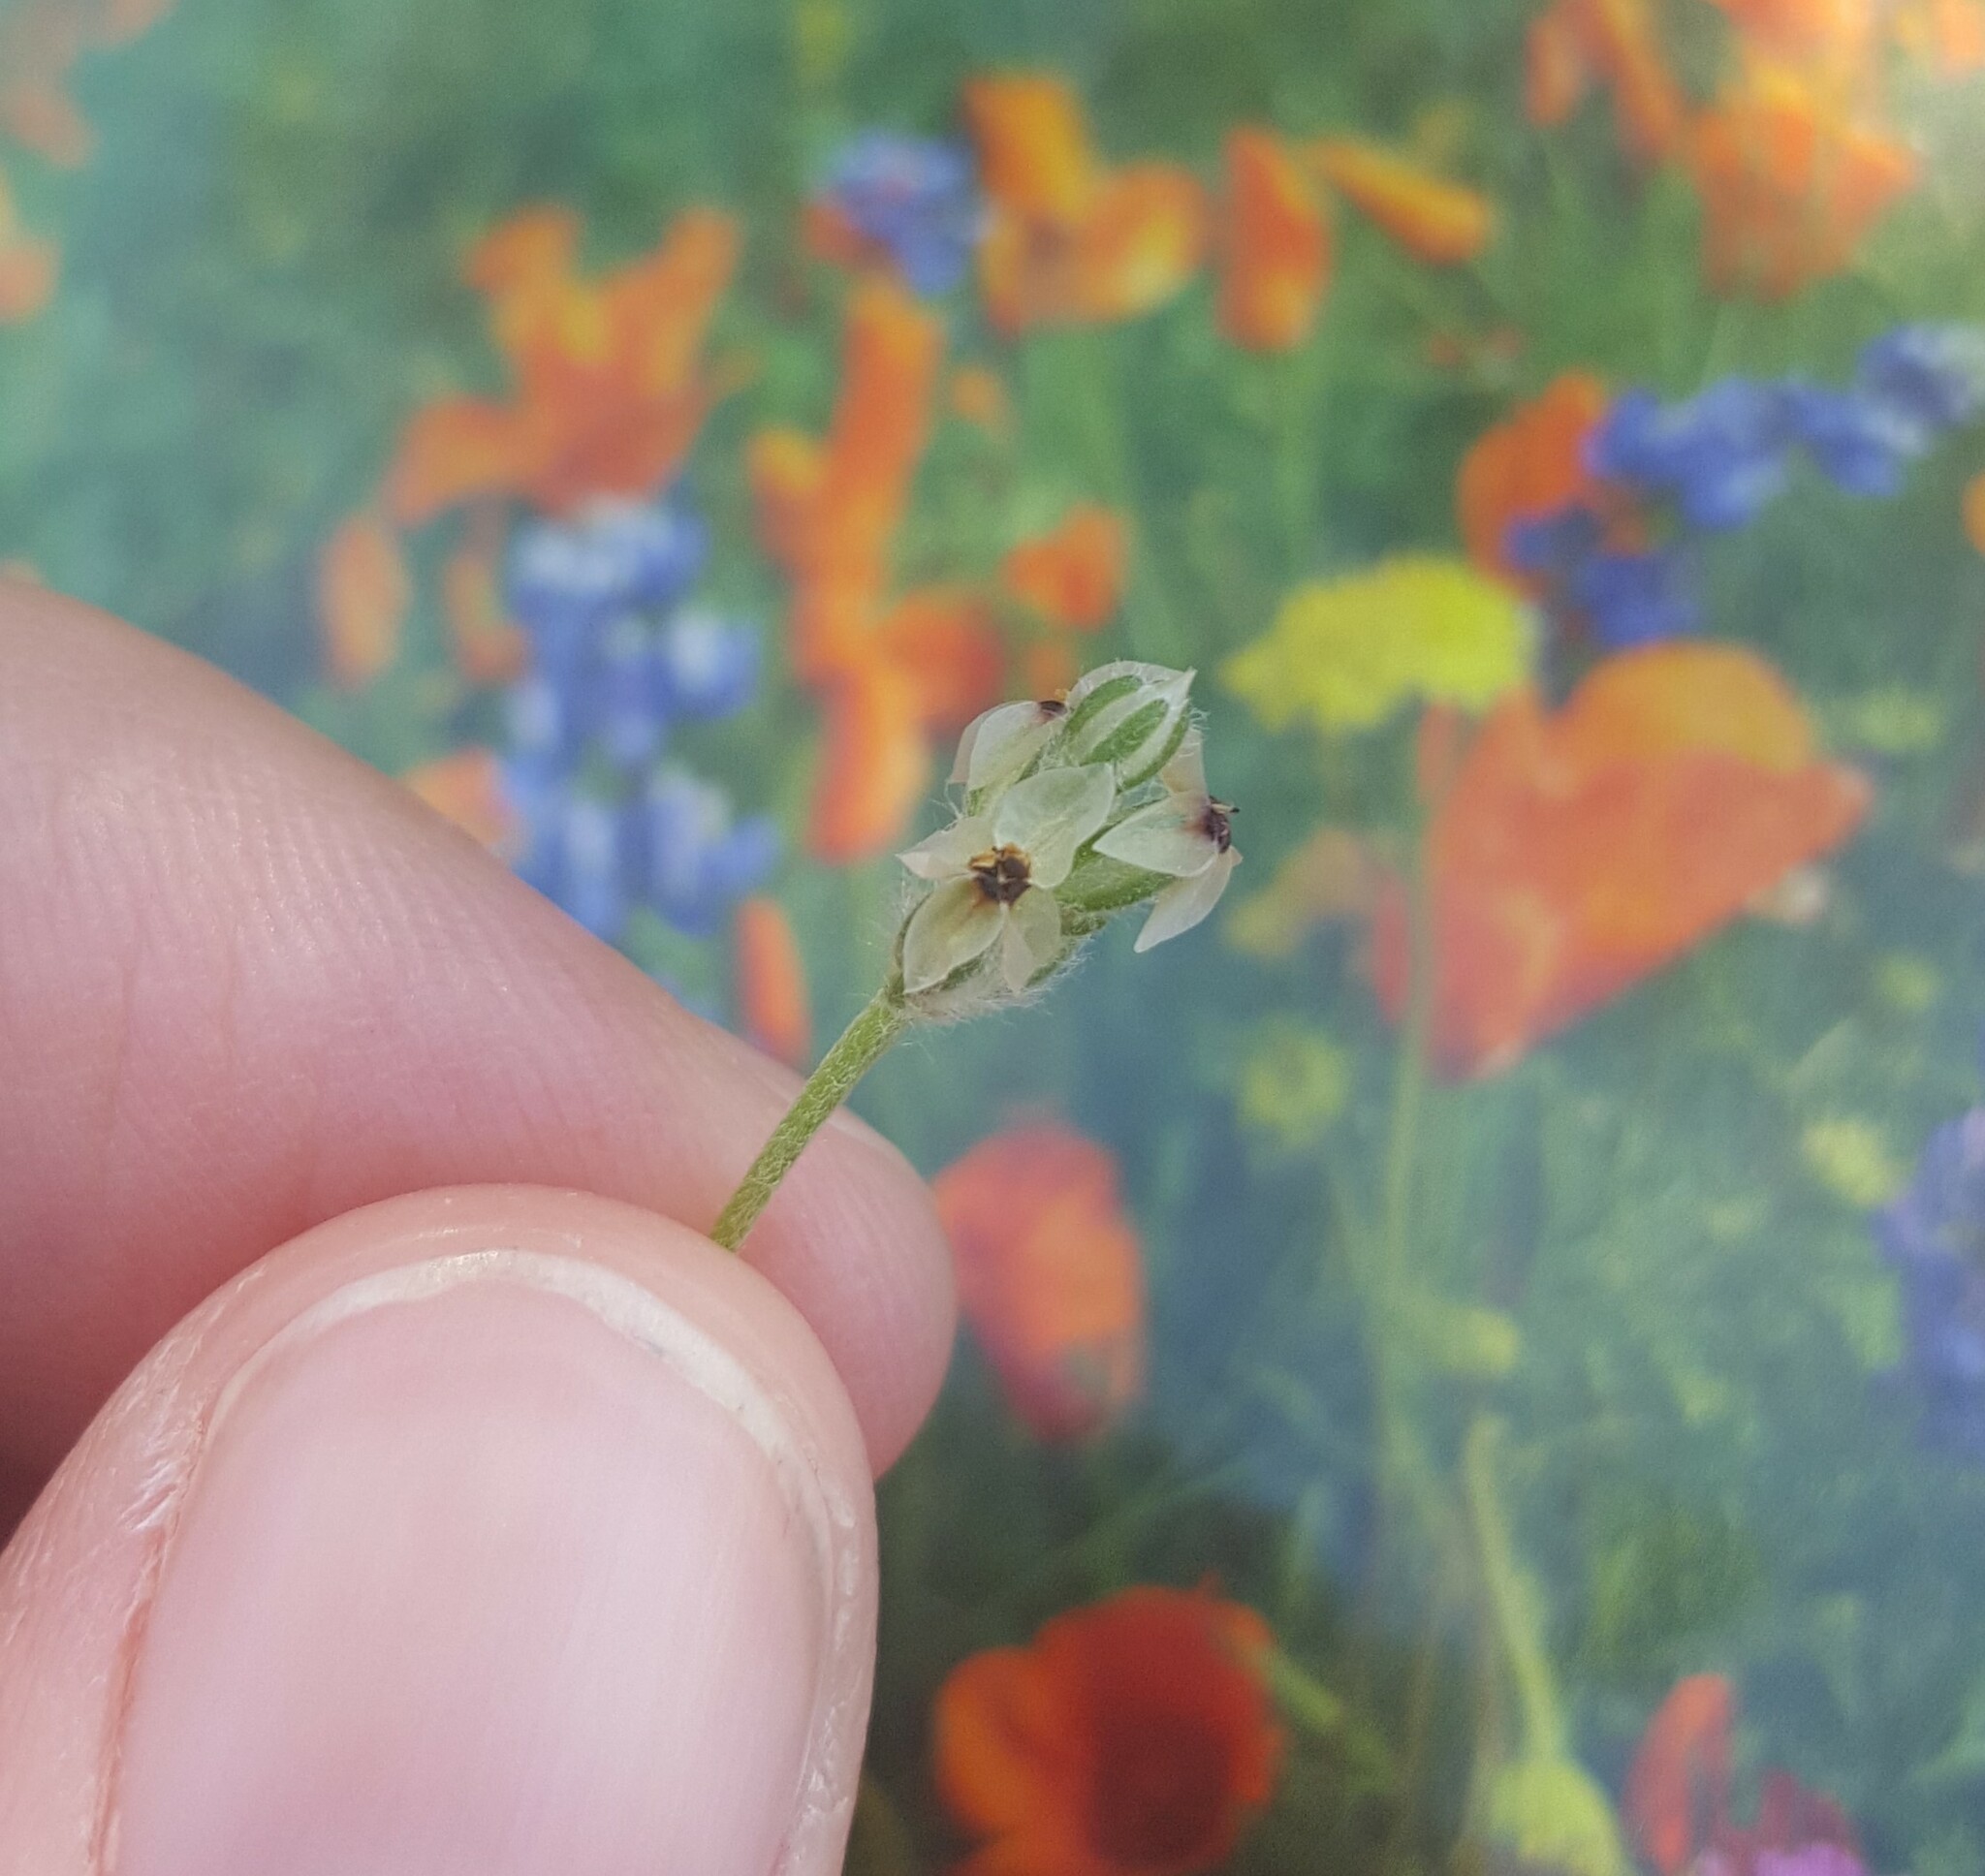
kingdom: Plantae
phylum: Tracheophyta
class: Magnoliopsida
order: Lamiales
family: Plantaginaceae
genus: Plantago
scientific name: Plantago erecta
